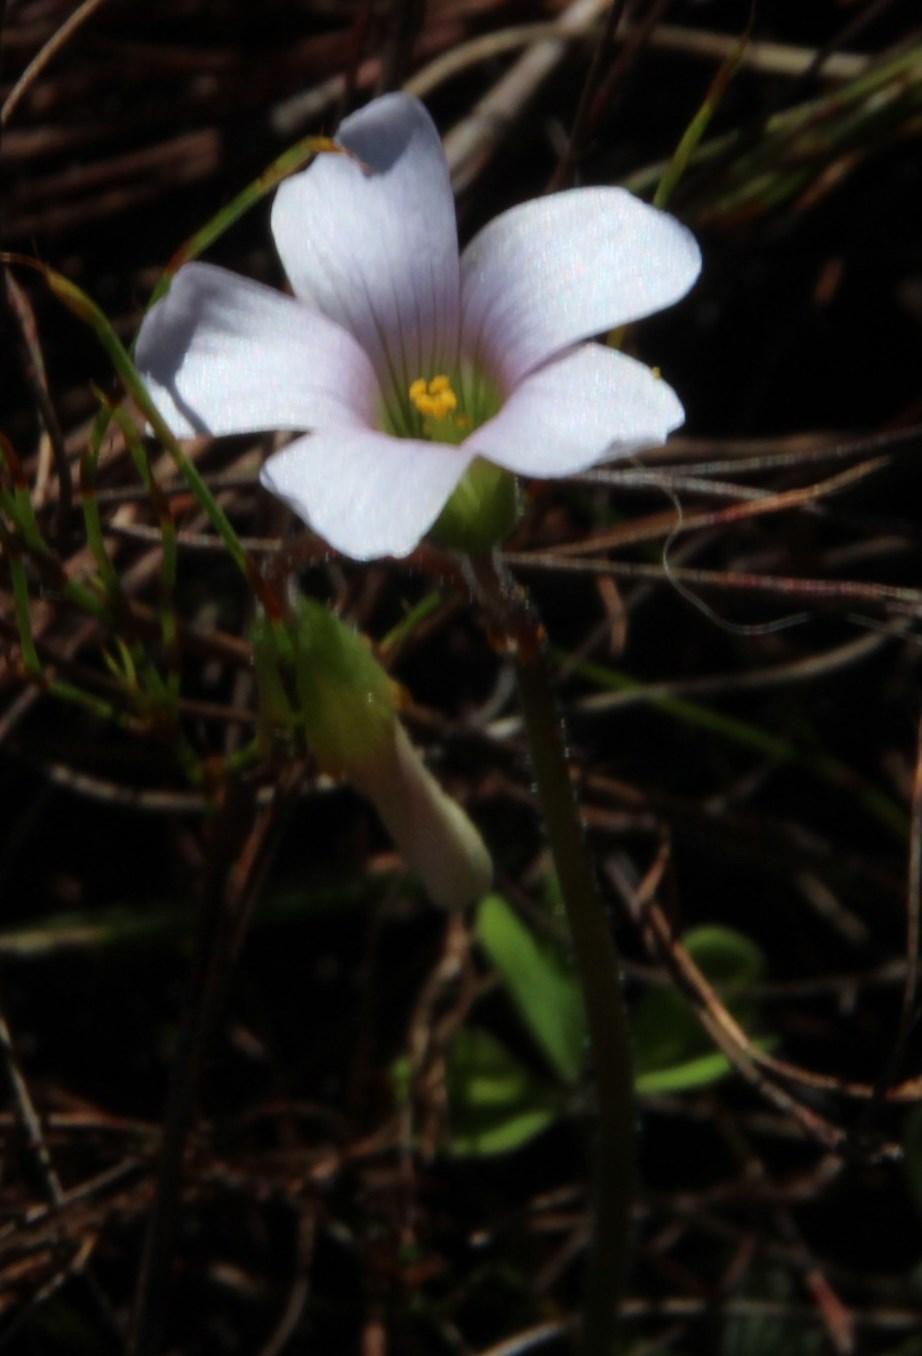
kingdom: Plantae
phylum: Tracheophyta
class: Magnoliopsida
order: Oxalidales
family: Oxalidaceae
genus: Oxalis
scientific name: Oxalis
